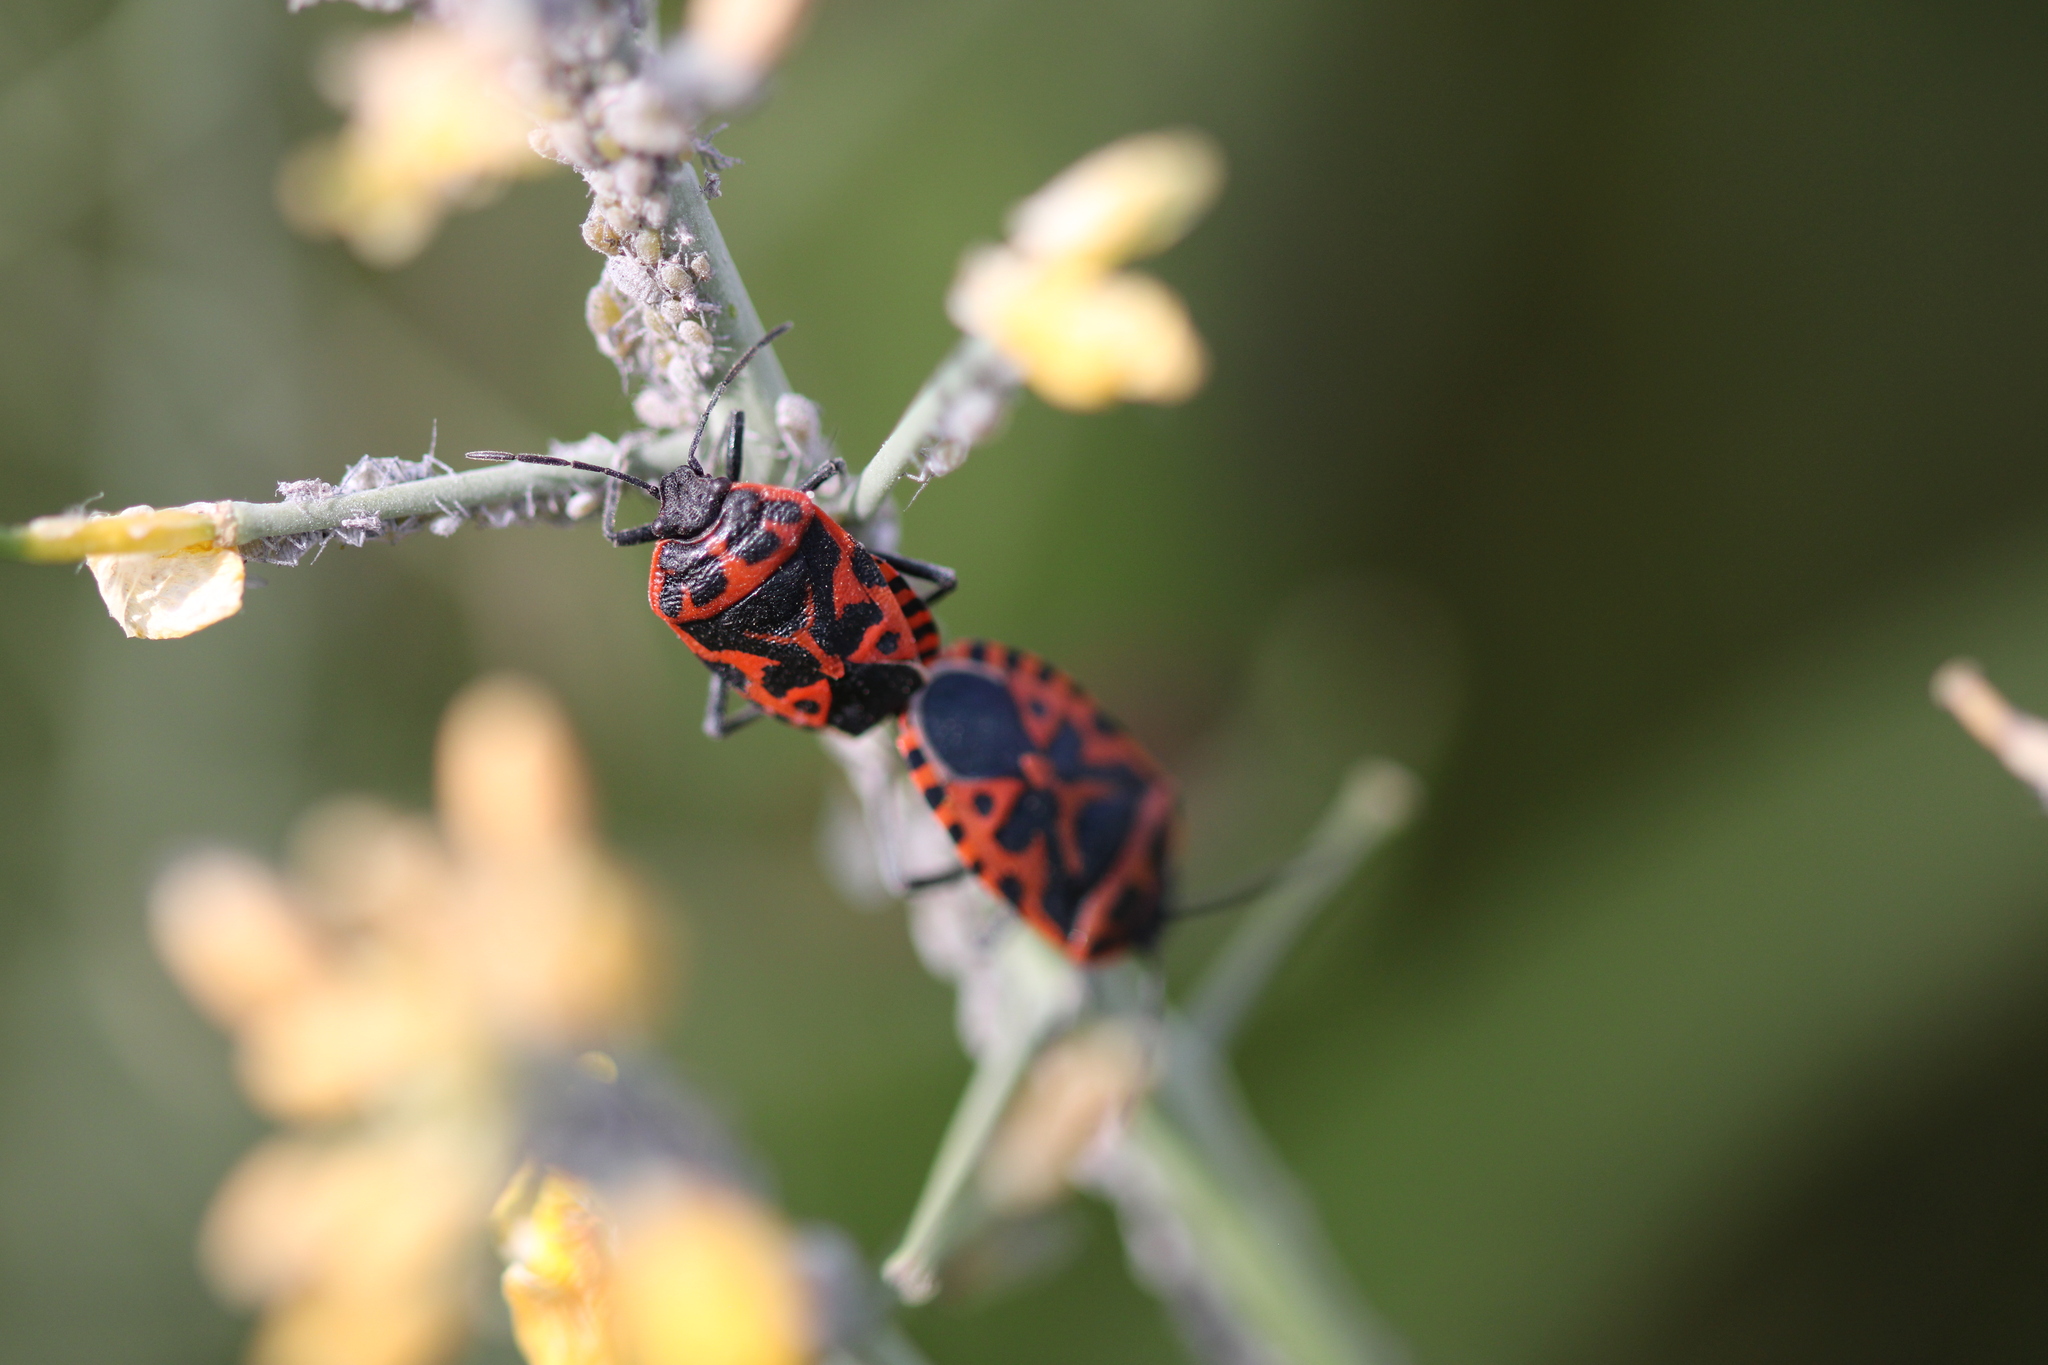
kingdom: Animalia
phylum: Arthropoda
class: Insecta
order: Hemiptera
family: Pentatomidae
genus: Eurydema
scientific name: Eurydema ventralis
